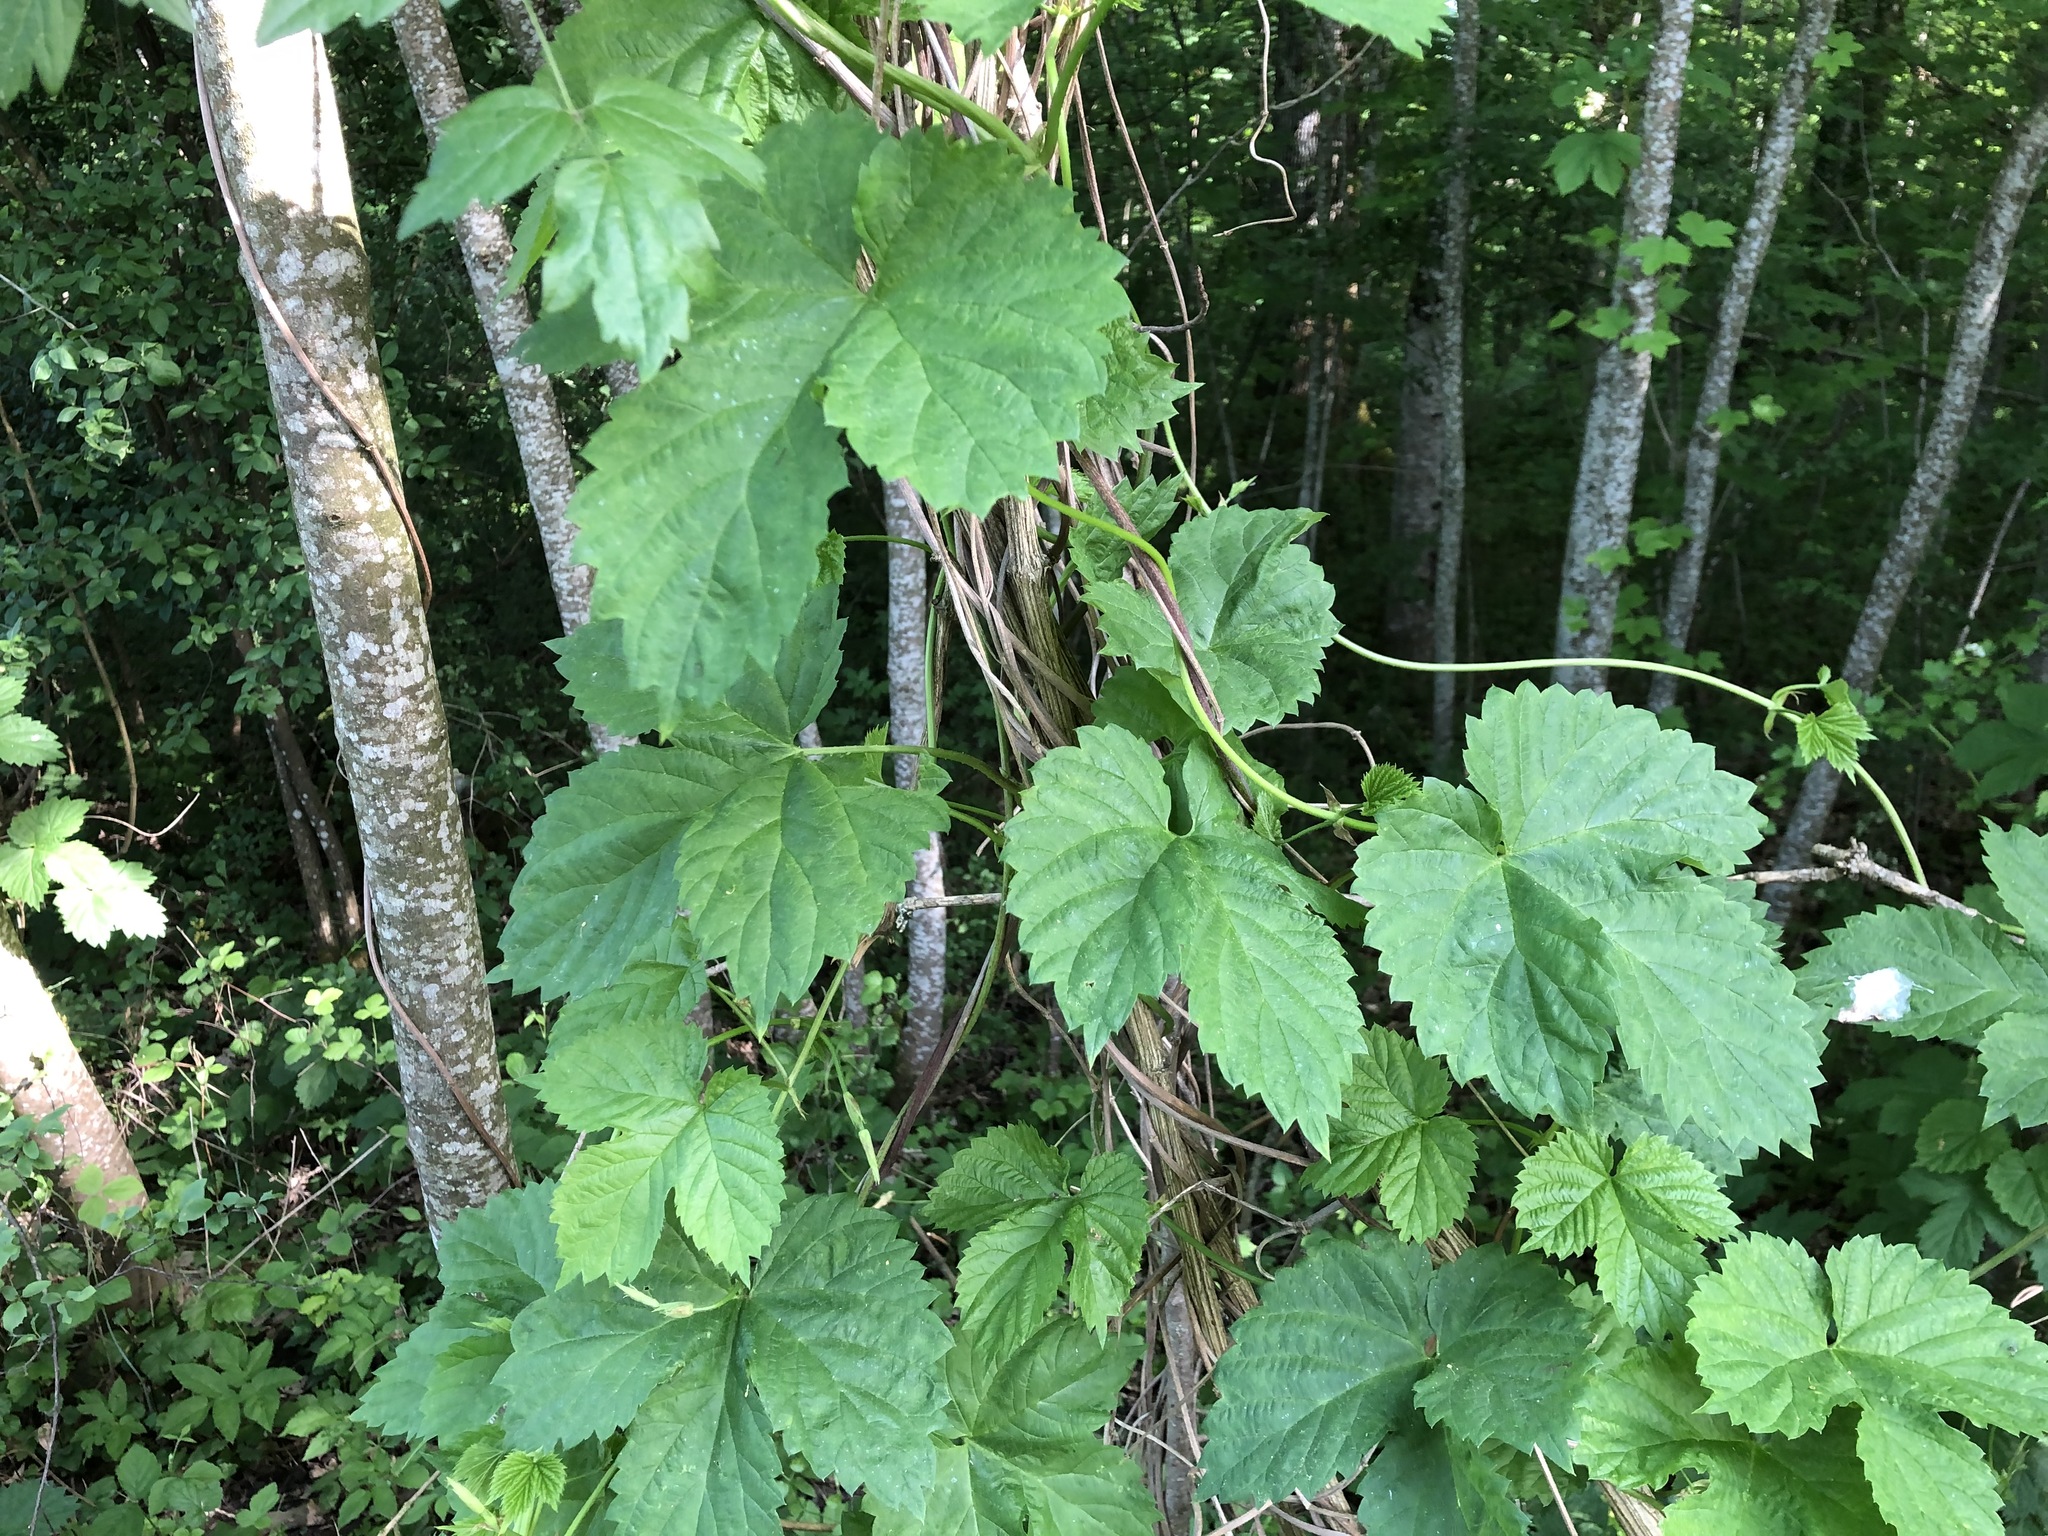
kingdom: Plantae
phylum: Tracheophyta
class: Magnoliopsida
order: Rosales
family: Cannabaceae
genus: Humulus
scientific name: Humulus lupulus
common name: Hop
